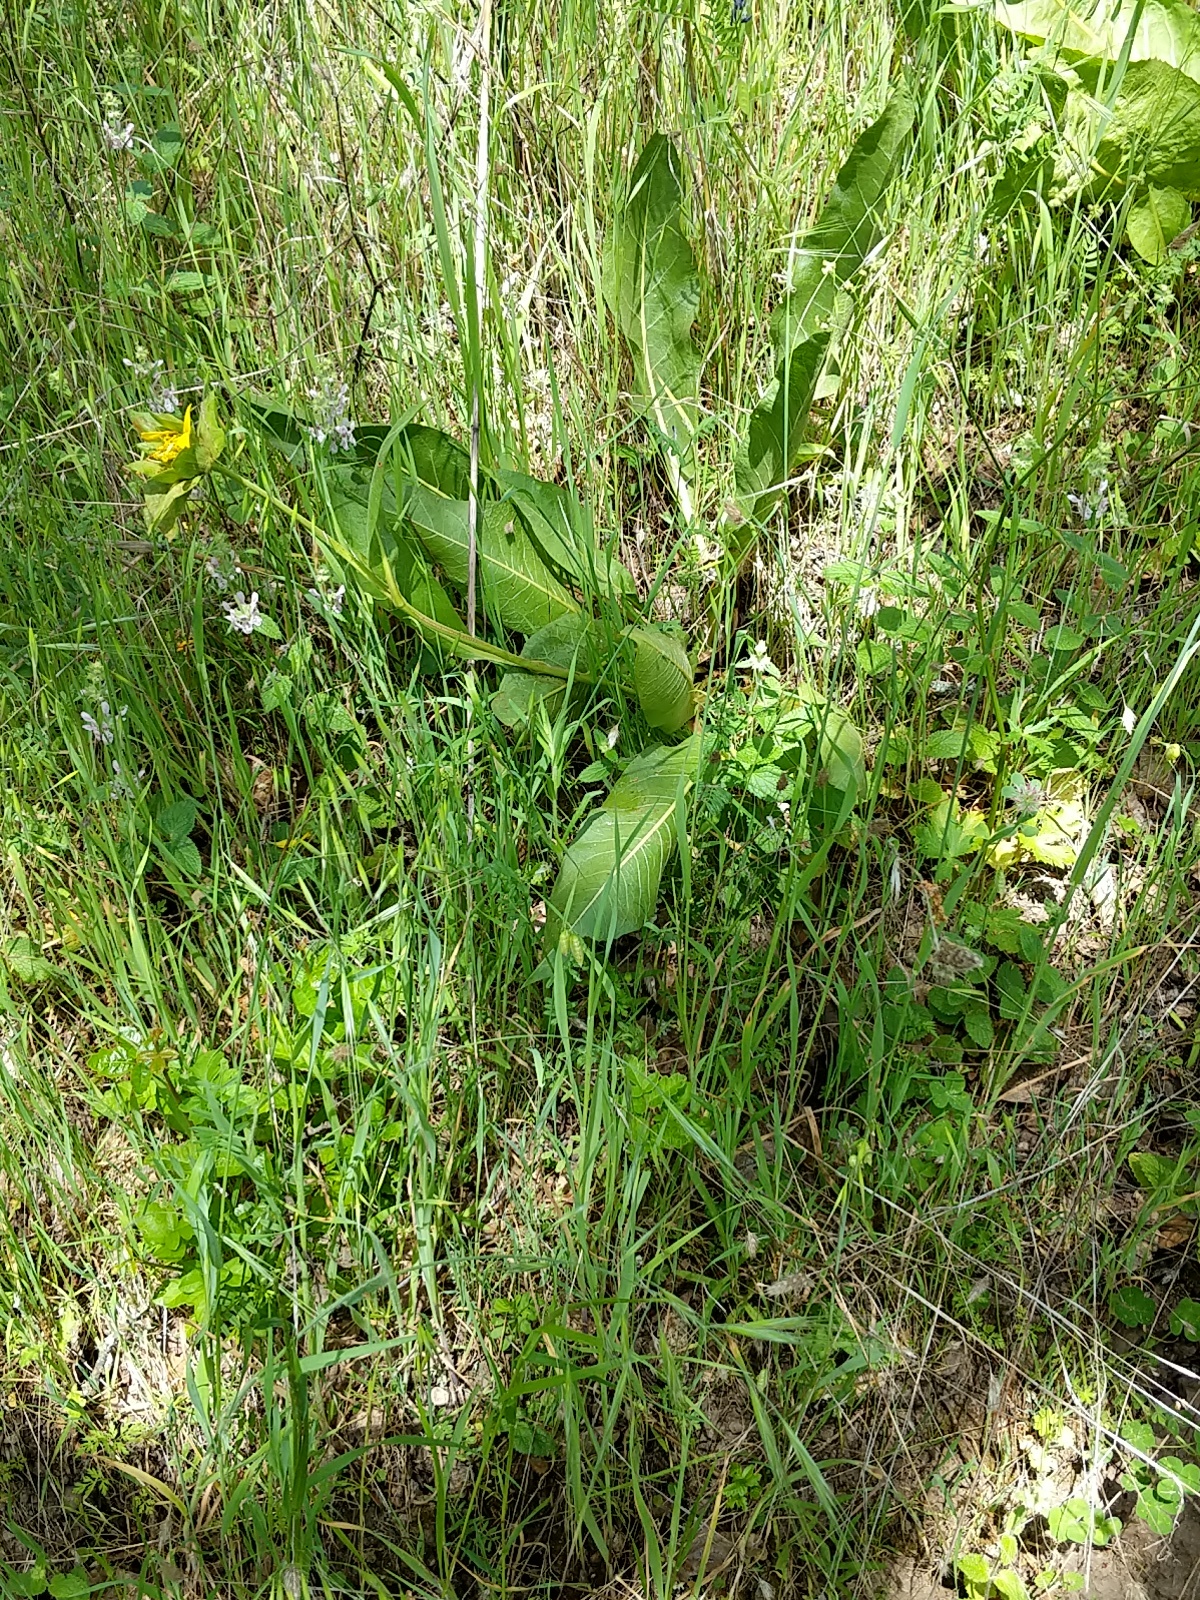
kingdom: Plantae
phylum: Tracheophyta
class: Magnoliopsida
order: Asterales
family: Asteraceae
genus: Wyethia
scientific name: Wyethia glabra
